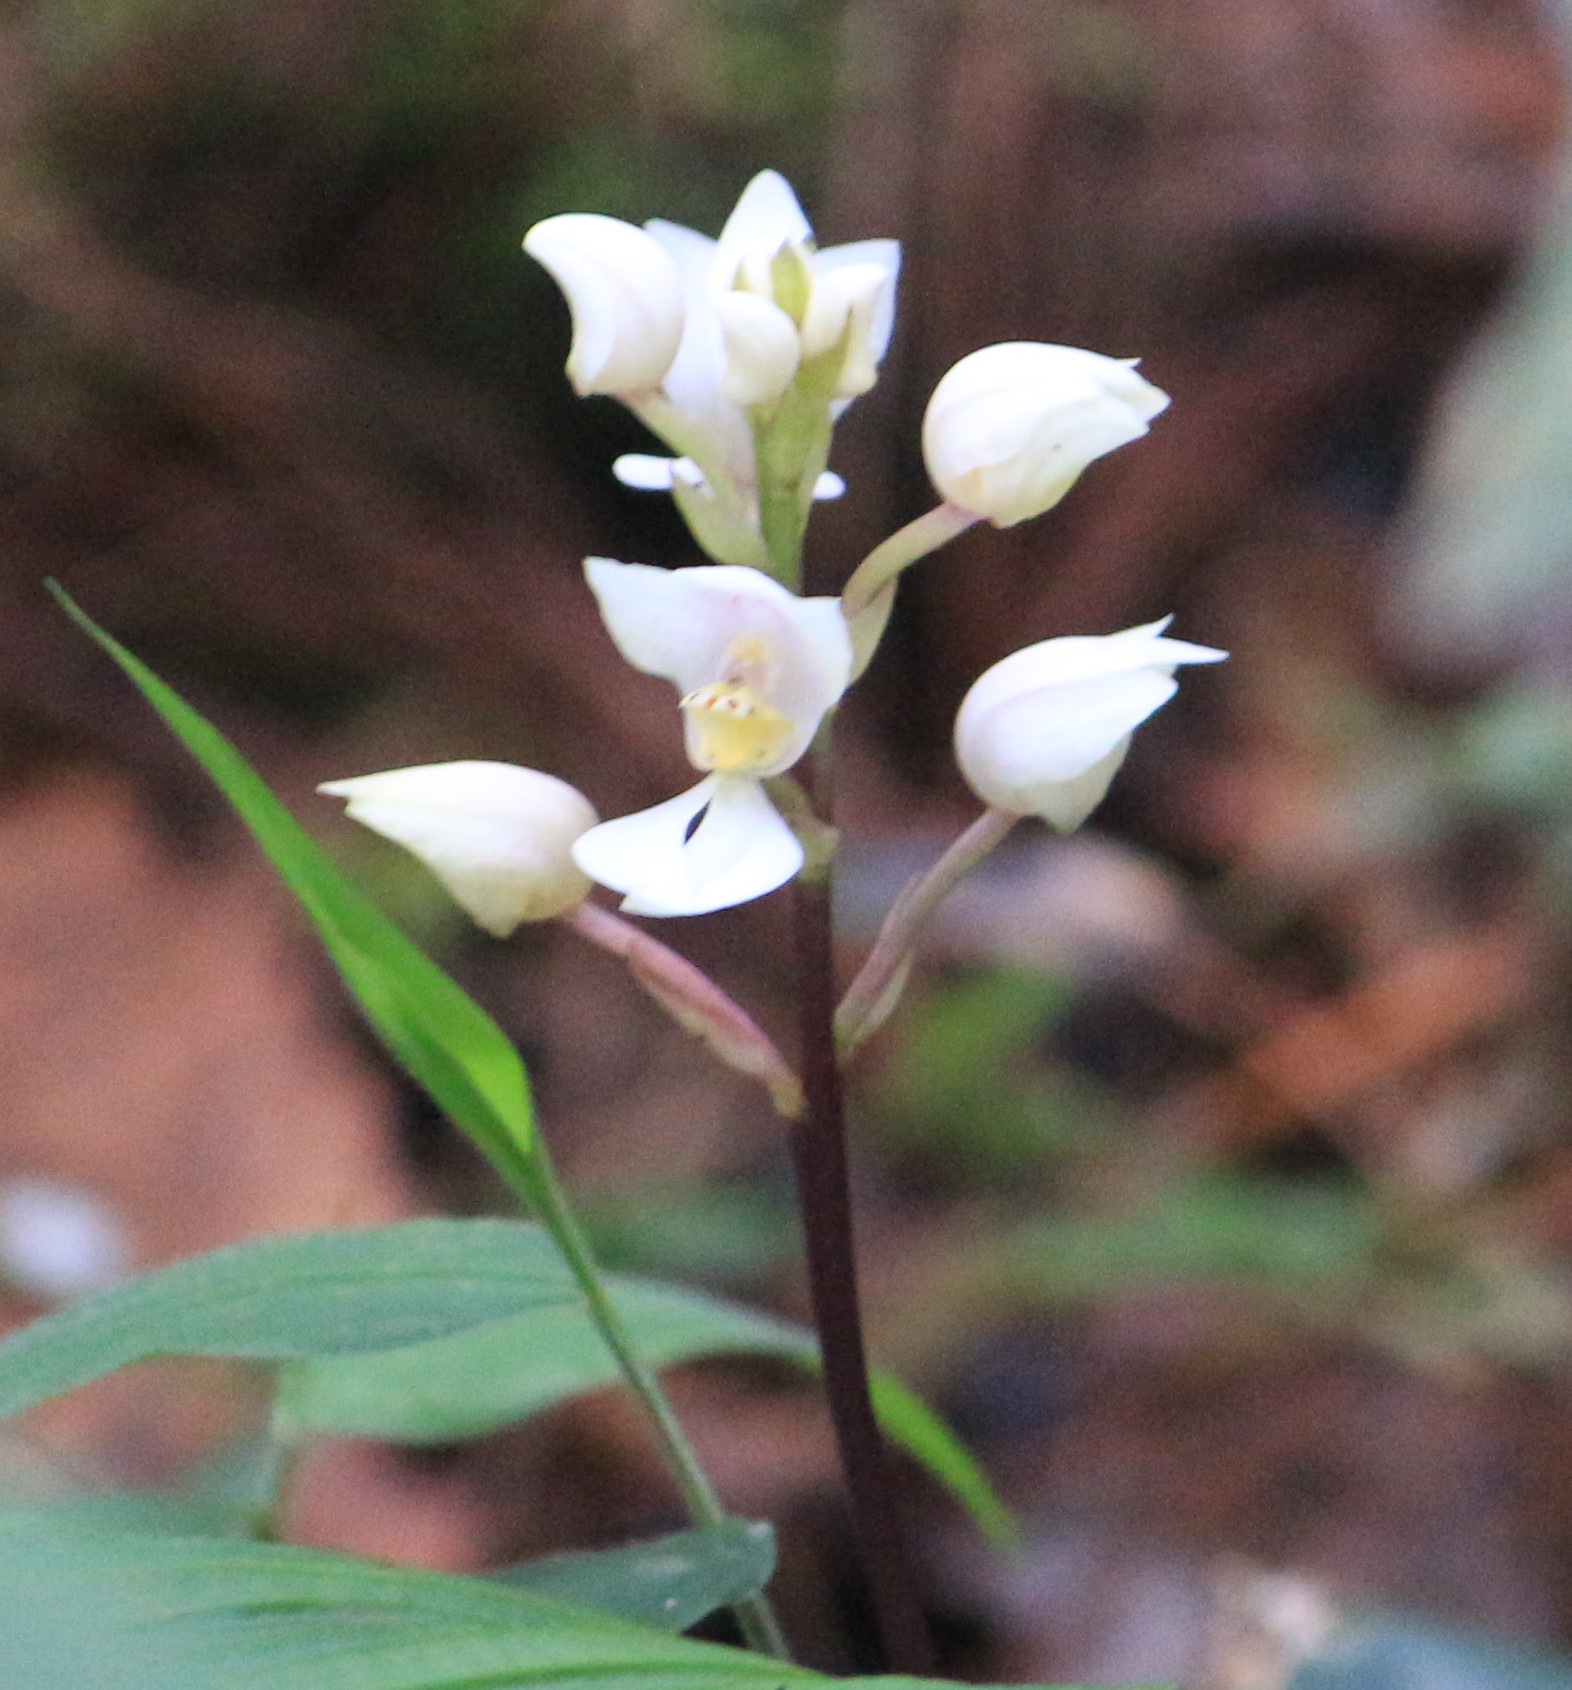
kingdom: Plantae
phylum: Tracheophyta
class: Liliopsida
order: Asparagales
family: Orchidaceae
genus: Govenia
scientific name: Govenia alba
